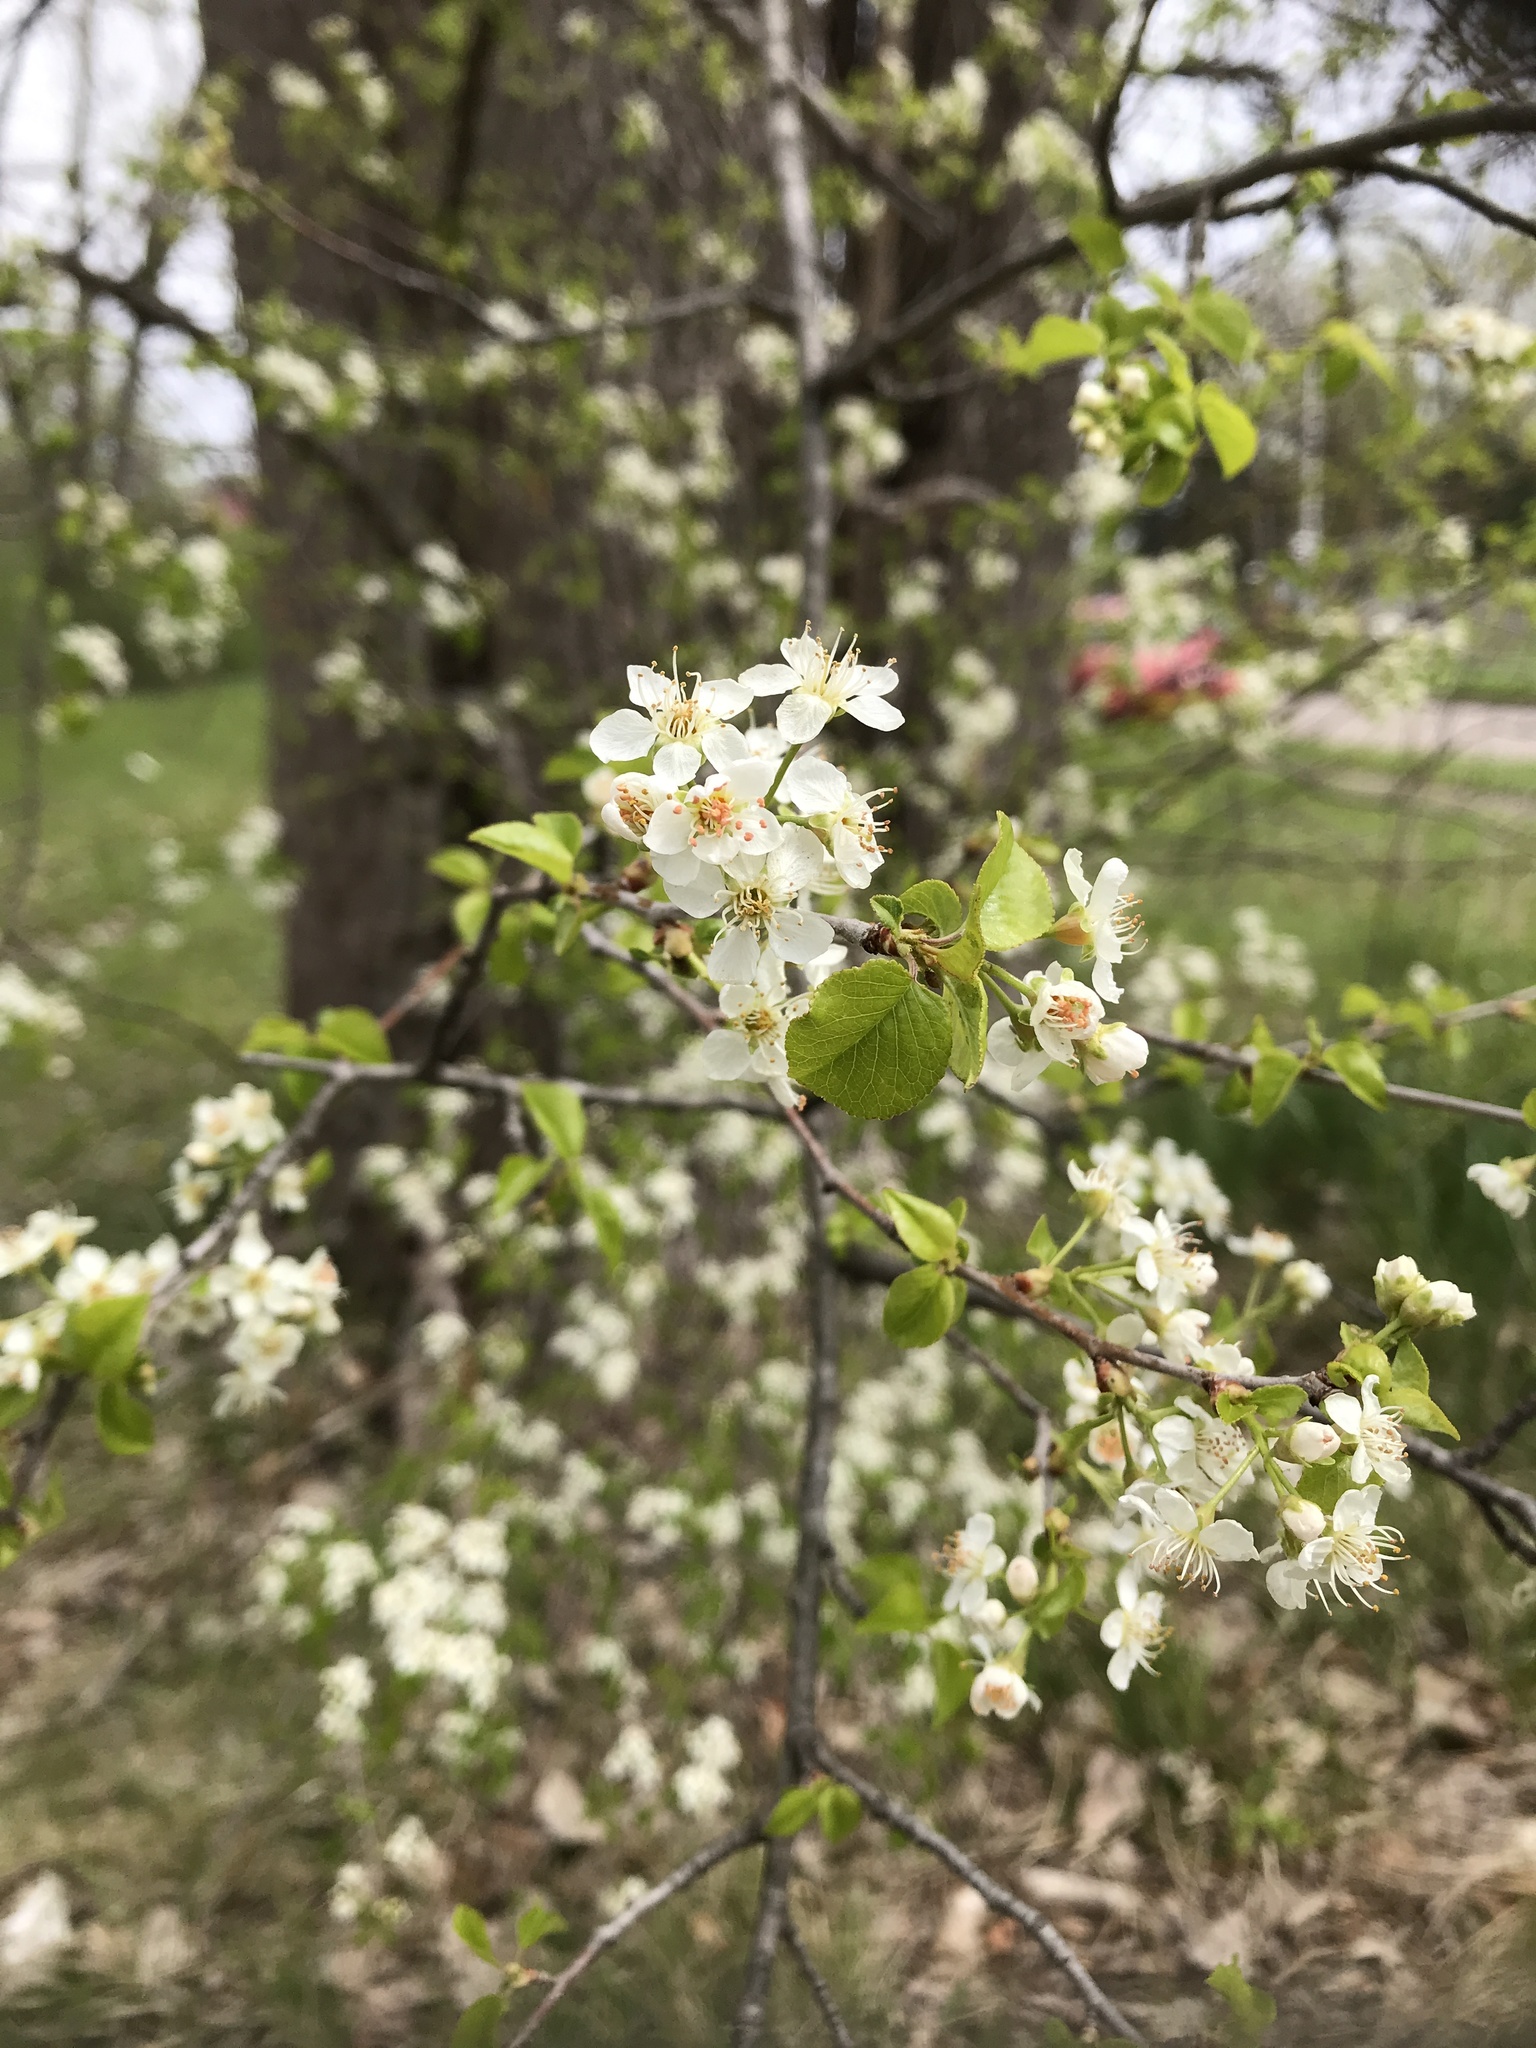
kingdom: Plantae
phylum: Tracheophyta
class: Magnoliopsida
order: Rosales
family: Rosaceae
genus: Prunus
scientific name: Prunus mahaleb
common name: Mahaleb cherry
